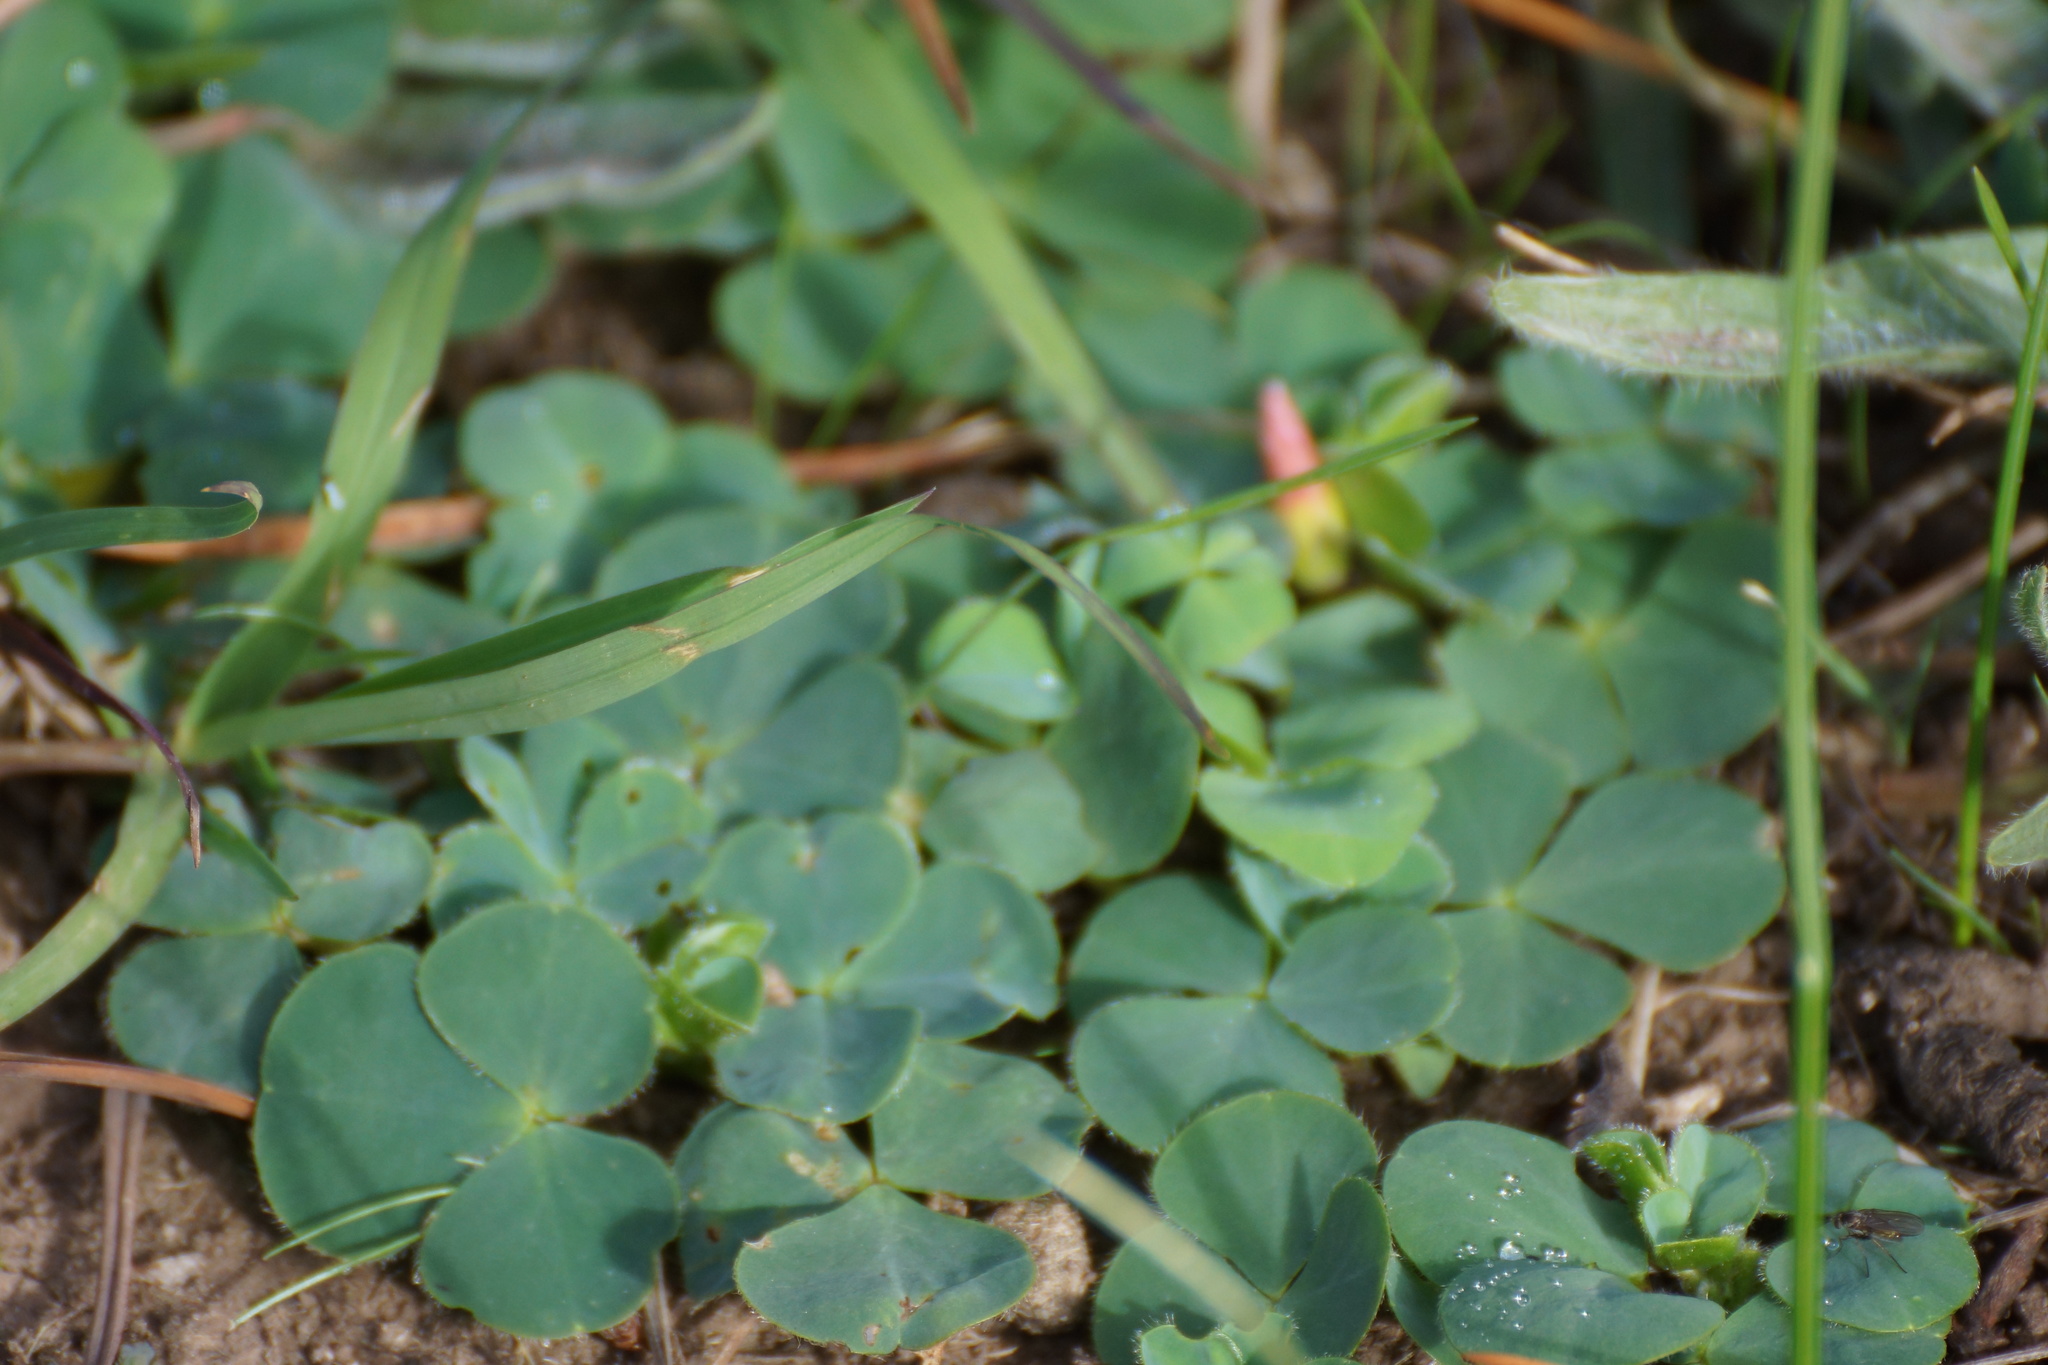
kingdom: Plantae
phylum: Tracheophyta
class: Magnoliopsida
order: Oxalidales
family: Oxalidaceae
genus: Oxalis
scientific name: Oxalis purpurea
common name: Purple woodsorrel
